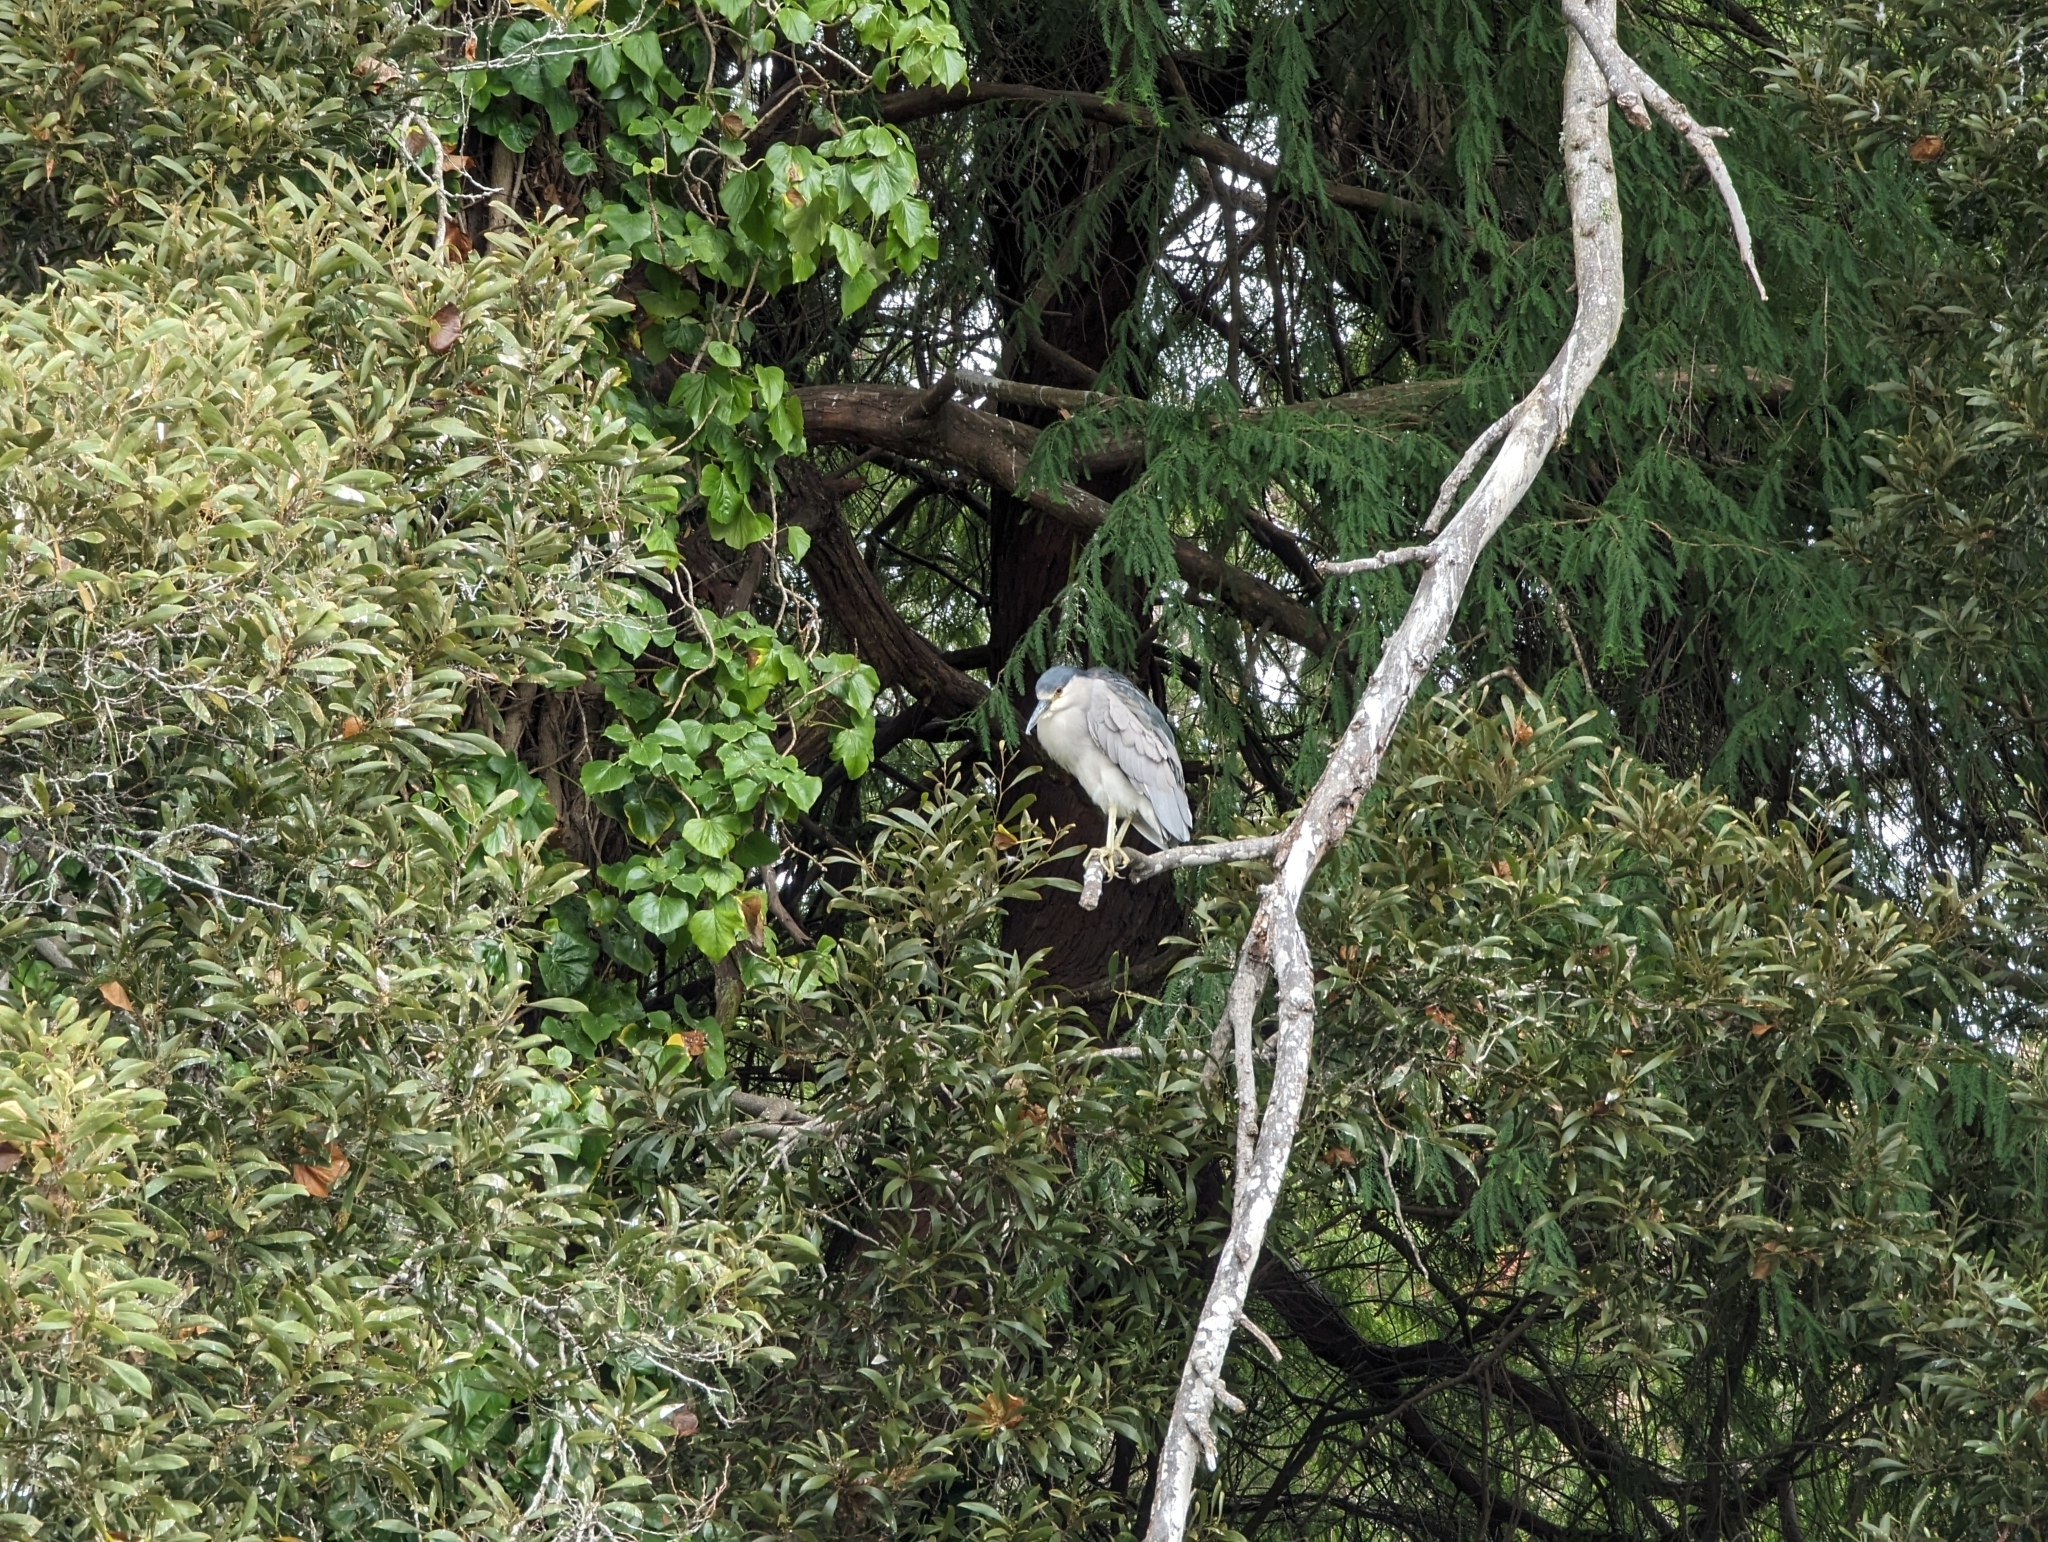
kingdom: Animalia
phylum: Chordata
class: Aves
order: Pelecaniformes
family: Ardeidae
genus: Nycticorax
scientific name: Nycticorax nycticorax
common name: Black-crowned night heron
